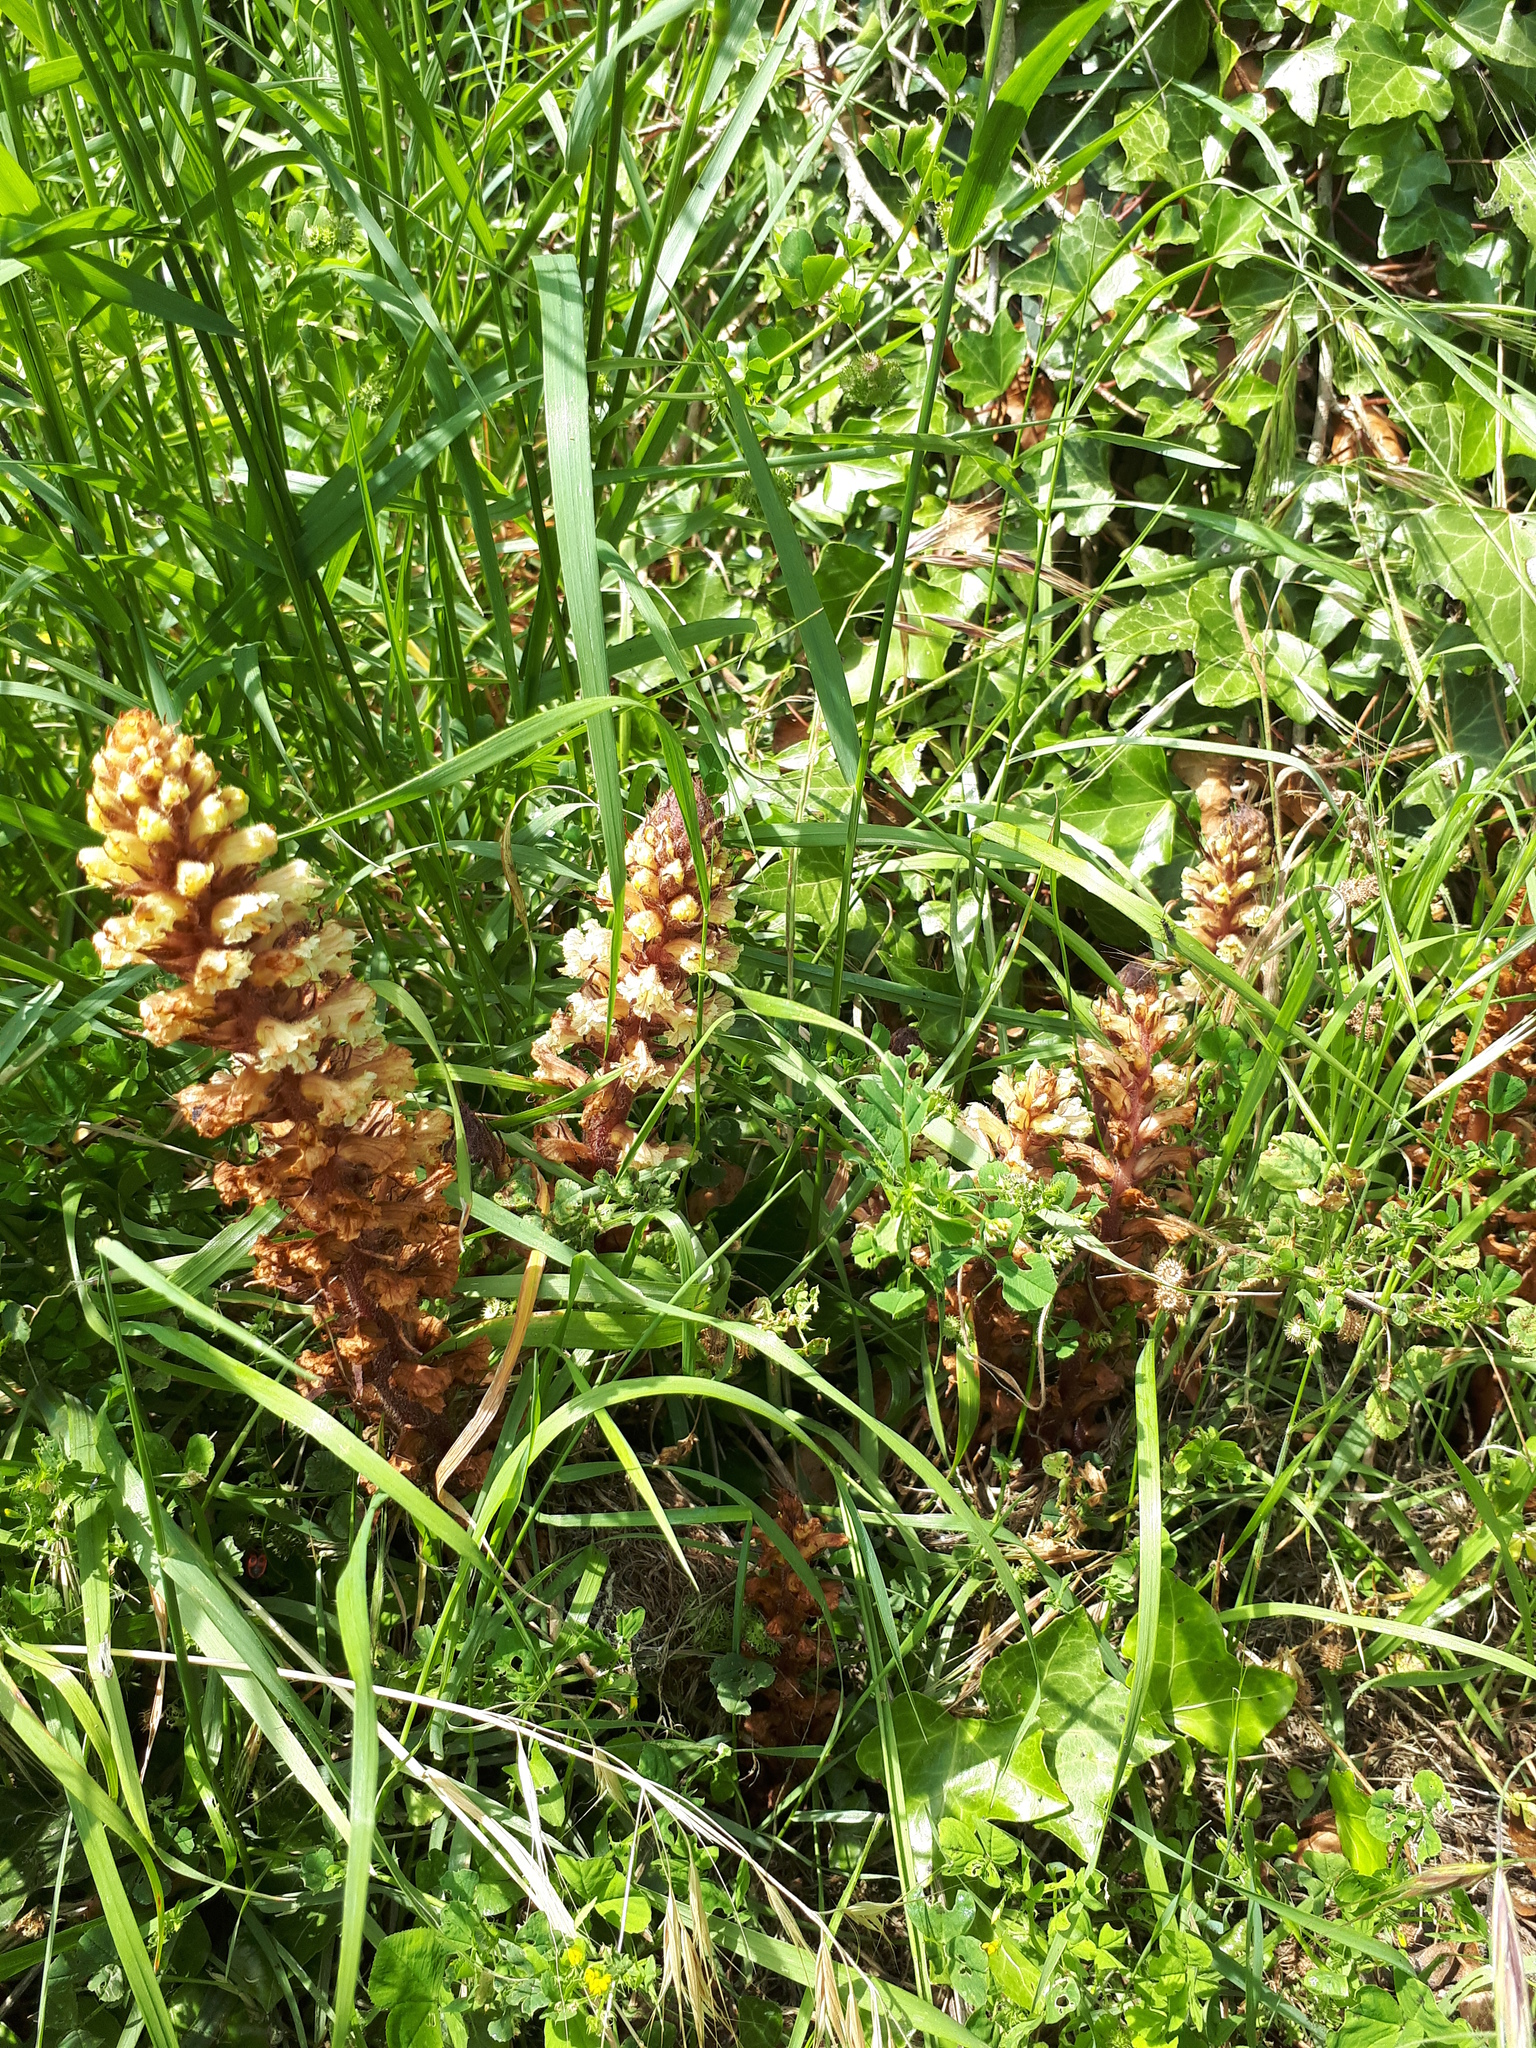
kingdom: Plantae
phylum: Tracheophyta
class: Magnoliopsida
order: Lamiales
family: Orobanchaceae
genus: Orobanche
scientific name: Orobanche hederae
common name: Ivy broomrape
